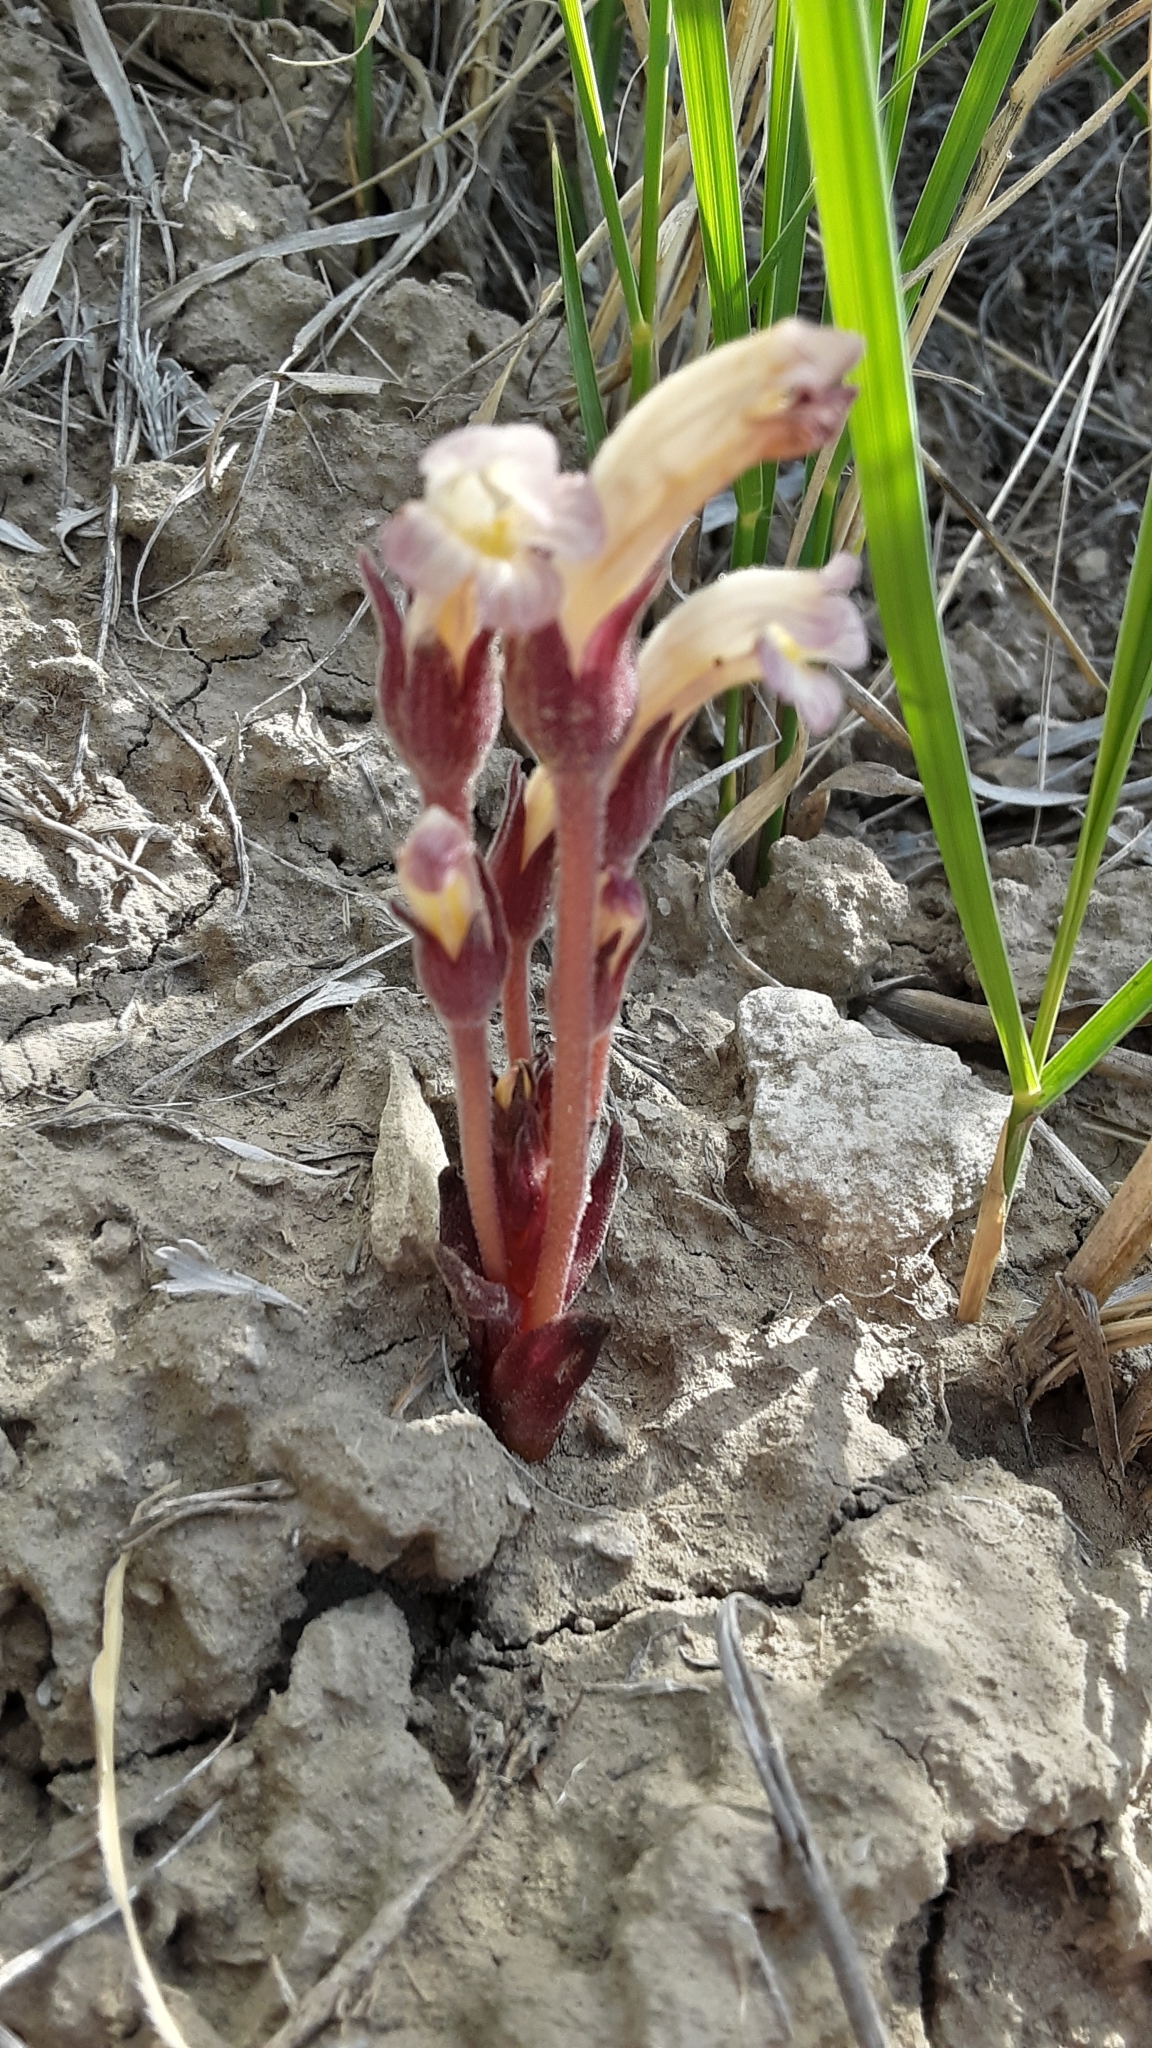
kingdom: Plantae
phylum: Tracheophyta
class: Magnoliopsida
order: Lamiales
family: Orobanchaceae
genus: Aphyllon
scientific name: Aphyllon fasciculatum
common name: Clustered broomrape
